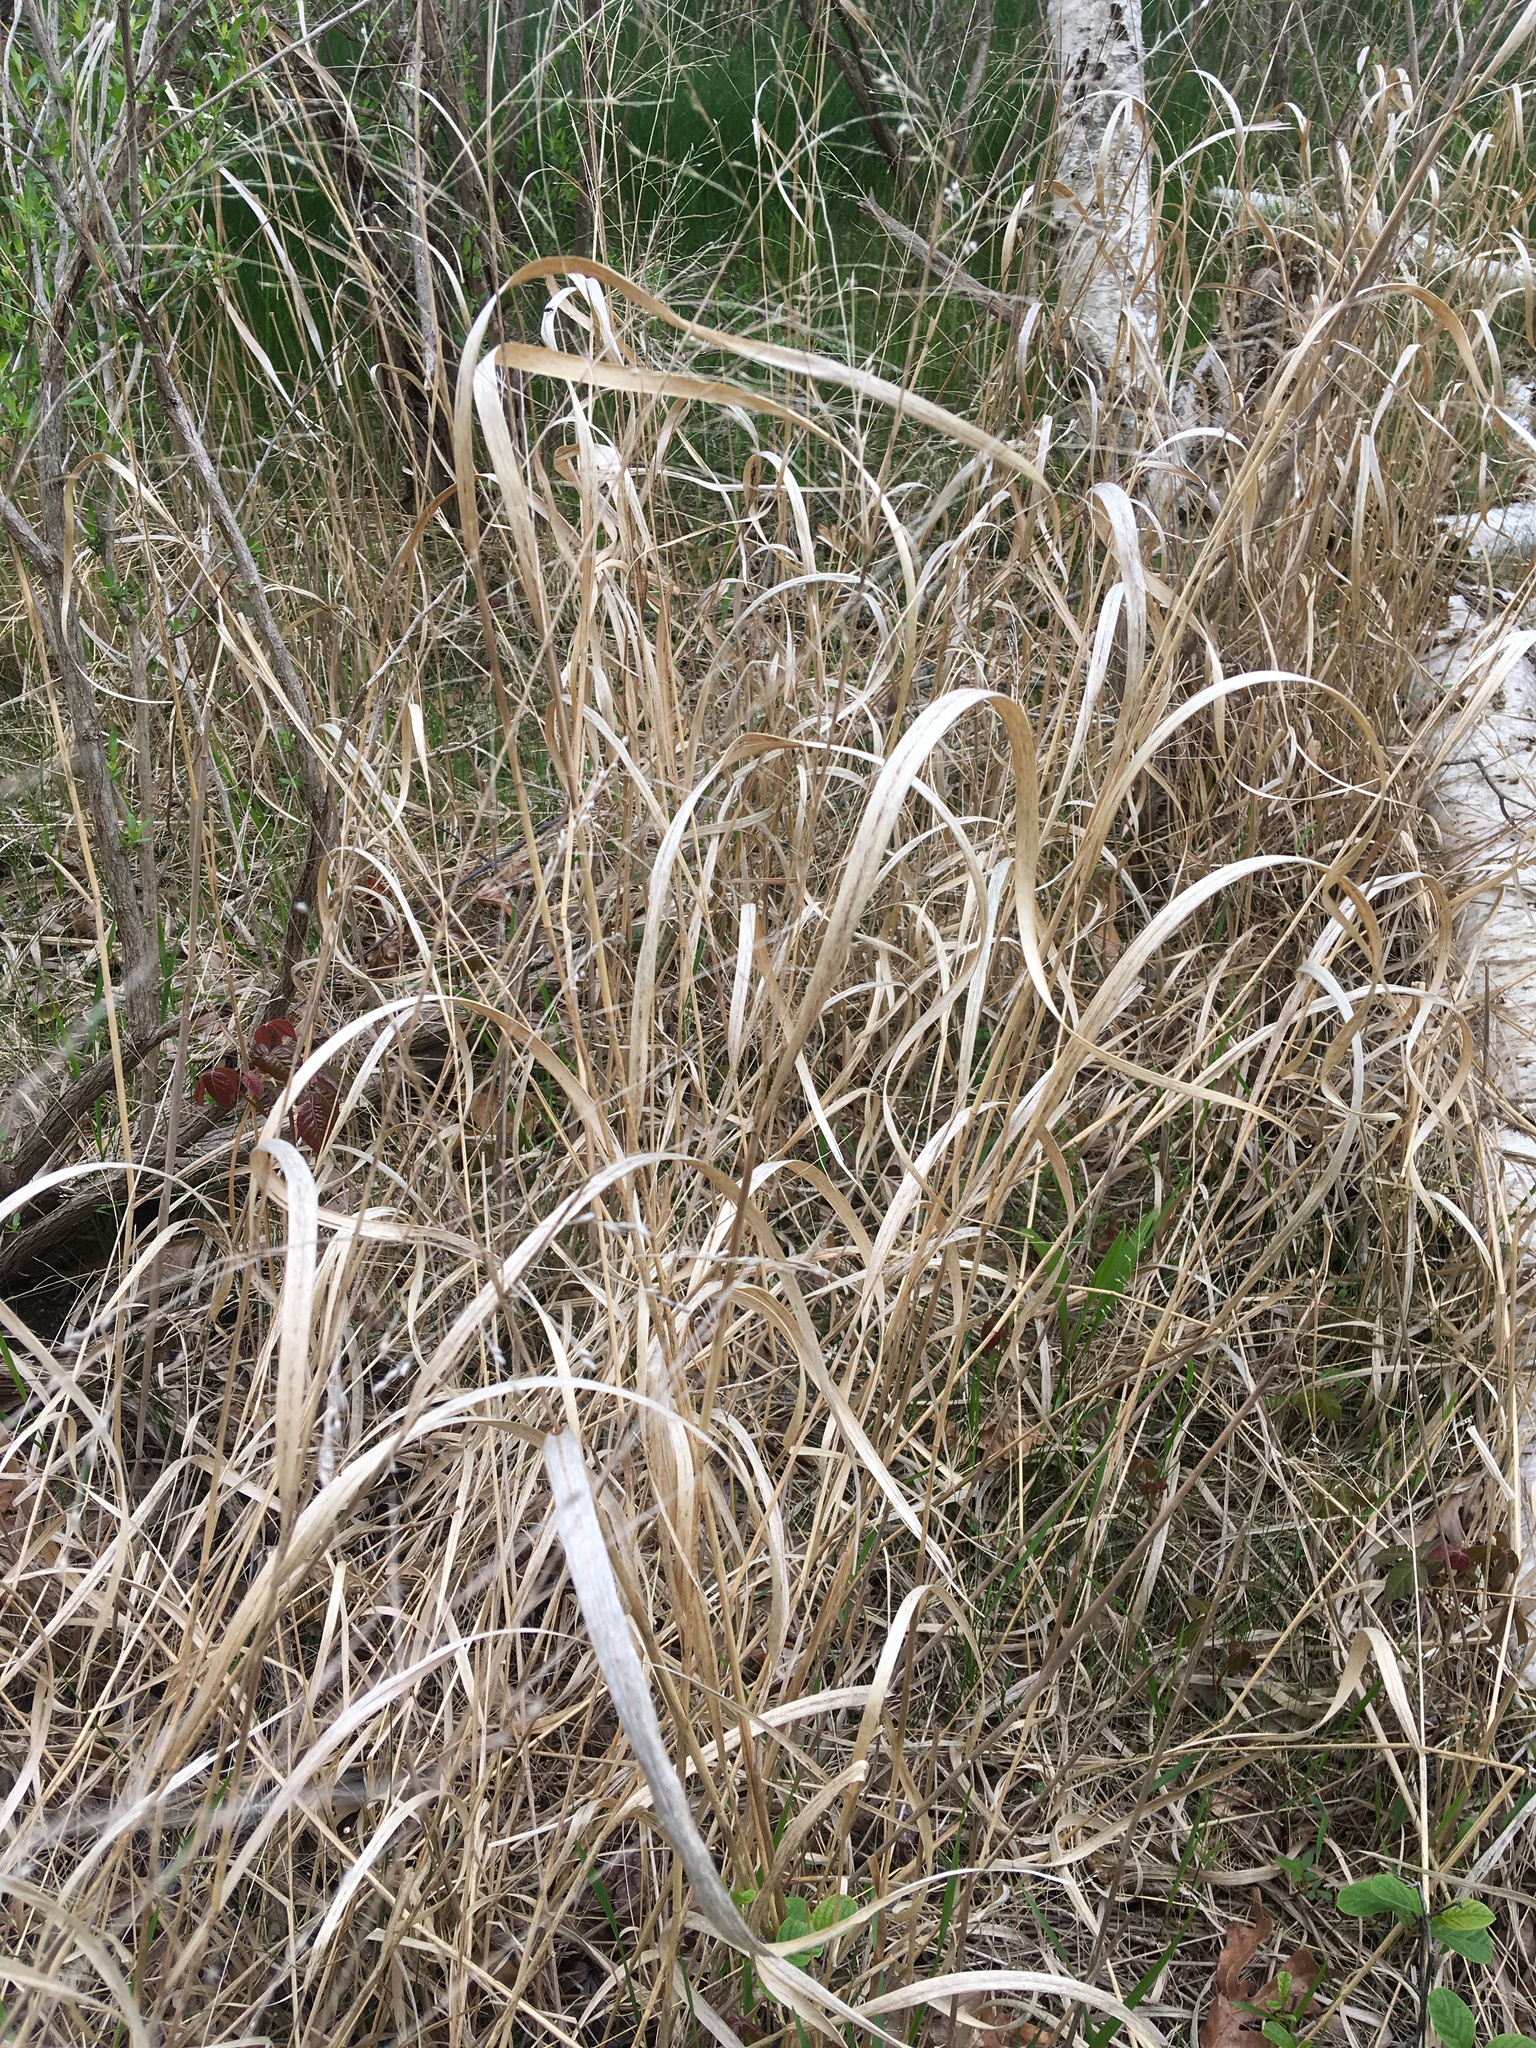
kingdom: Plantae
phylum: Tracheophyta
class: Liliopsida
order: Poales
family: Poaceae
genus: Panicum
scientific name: Panicum virgatum
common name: Switchgrass
